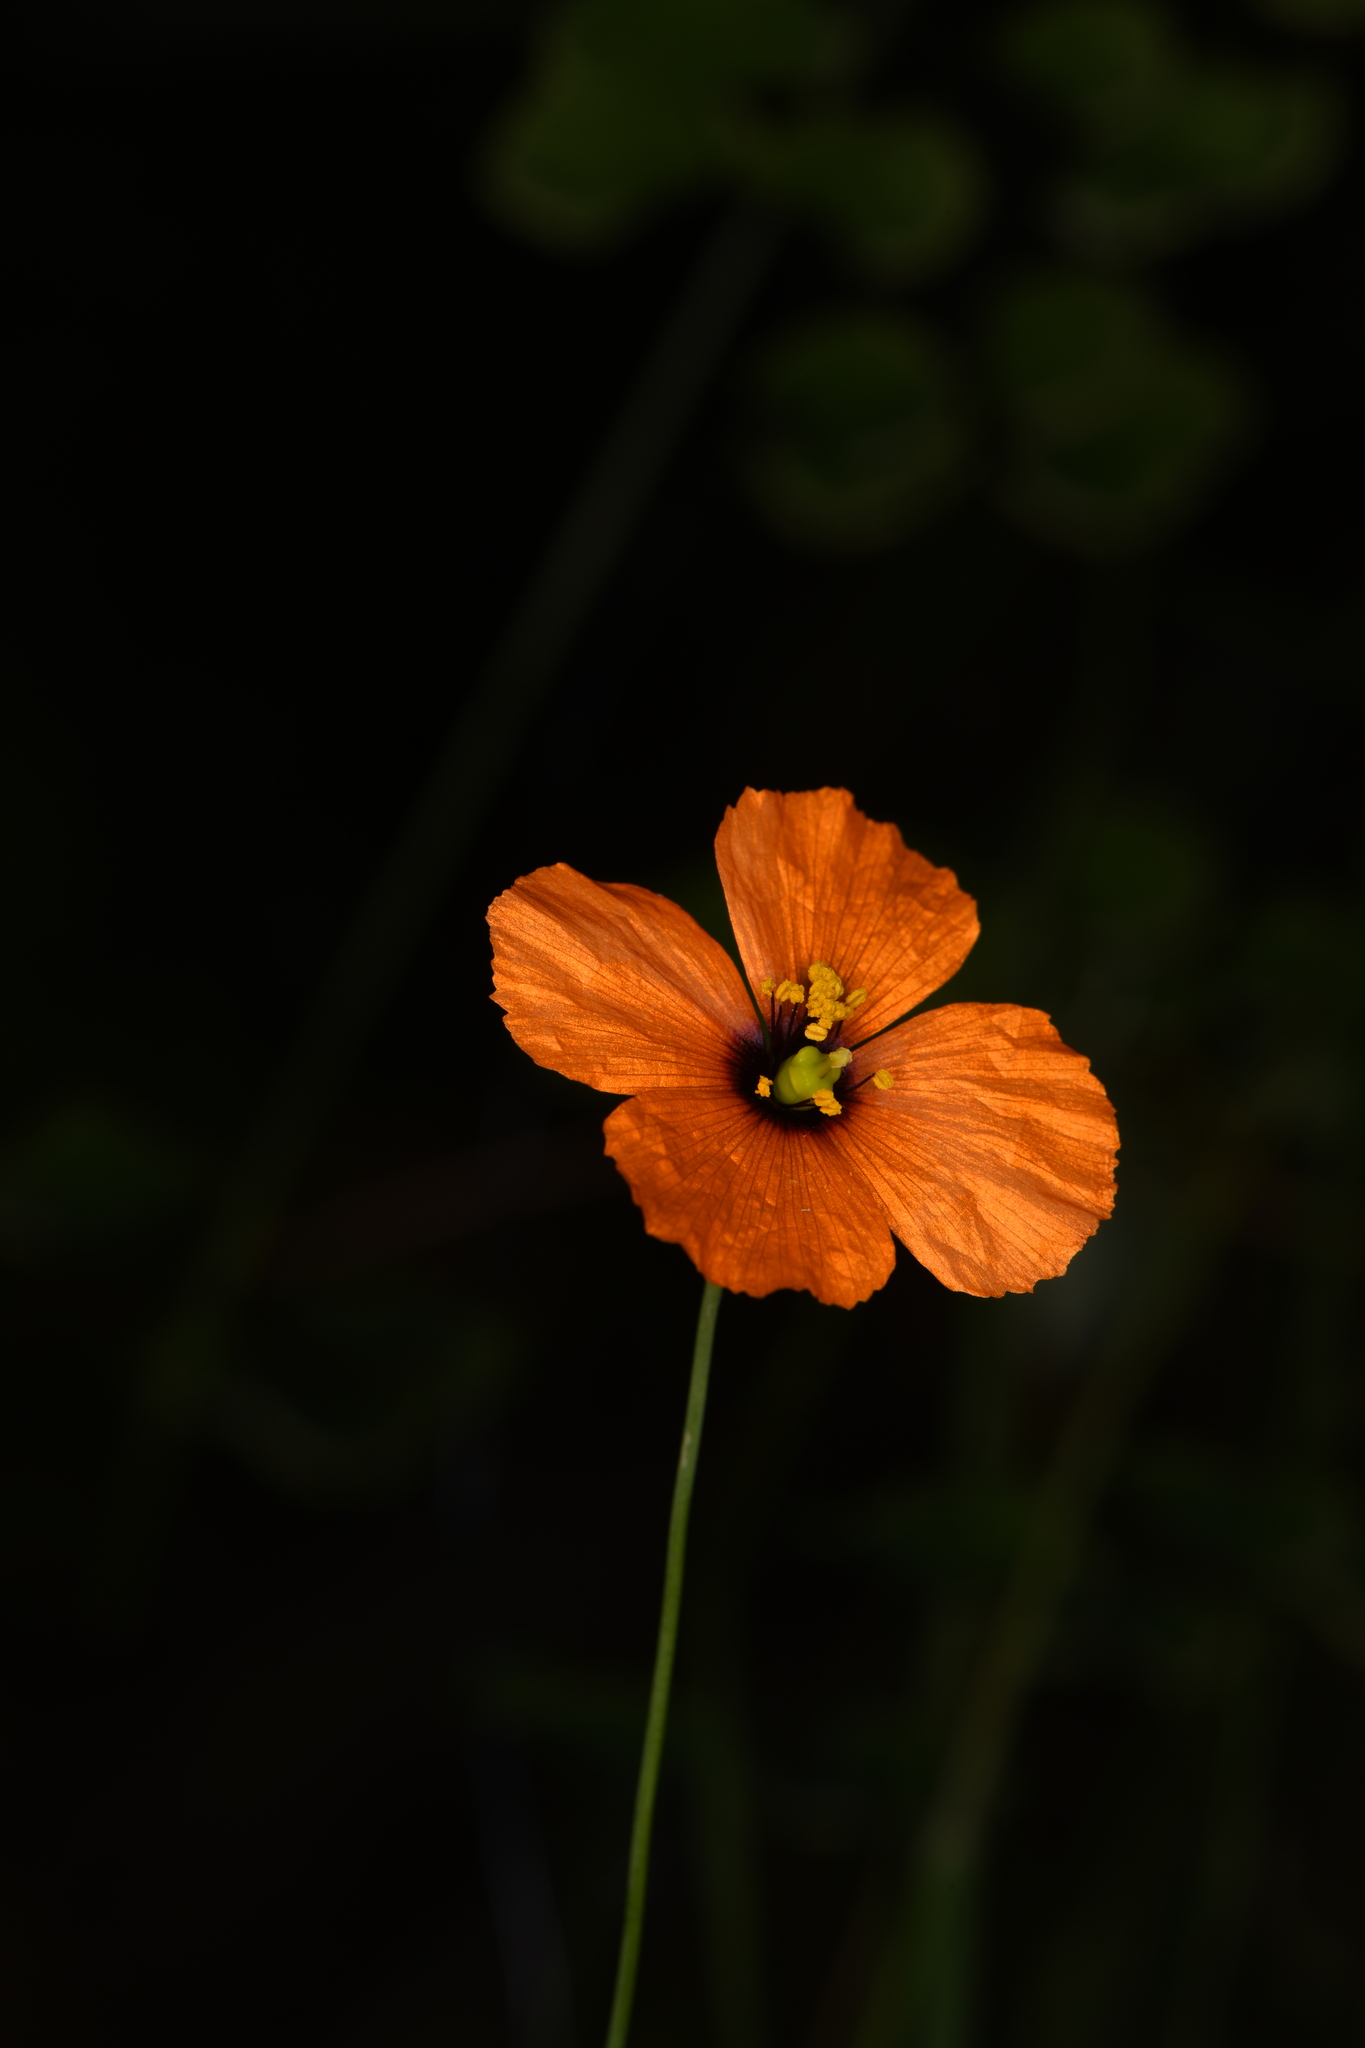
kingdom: Plantae
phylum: Tracheophyta
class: Magnoliopsida
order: Ranunculales
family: Papaveraceae
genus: Stylomecon
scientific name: Stylomecon heterophylla
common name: Flaming-poppy
